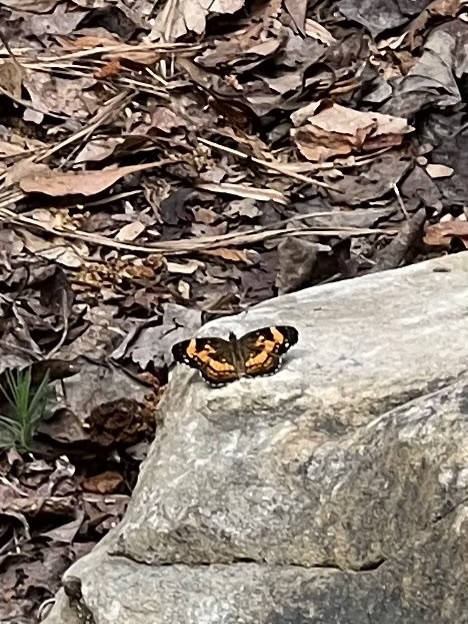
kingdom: Animalia
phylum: Arthropoda
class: Insecta
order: Lepidoptera
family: Nymphalidae
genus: Chlosyne
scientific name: Chlosyne nycteis
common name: Silvery checkerspot
